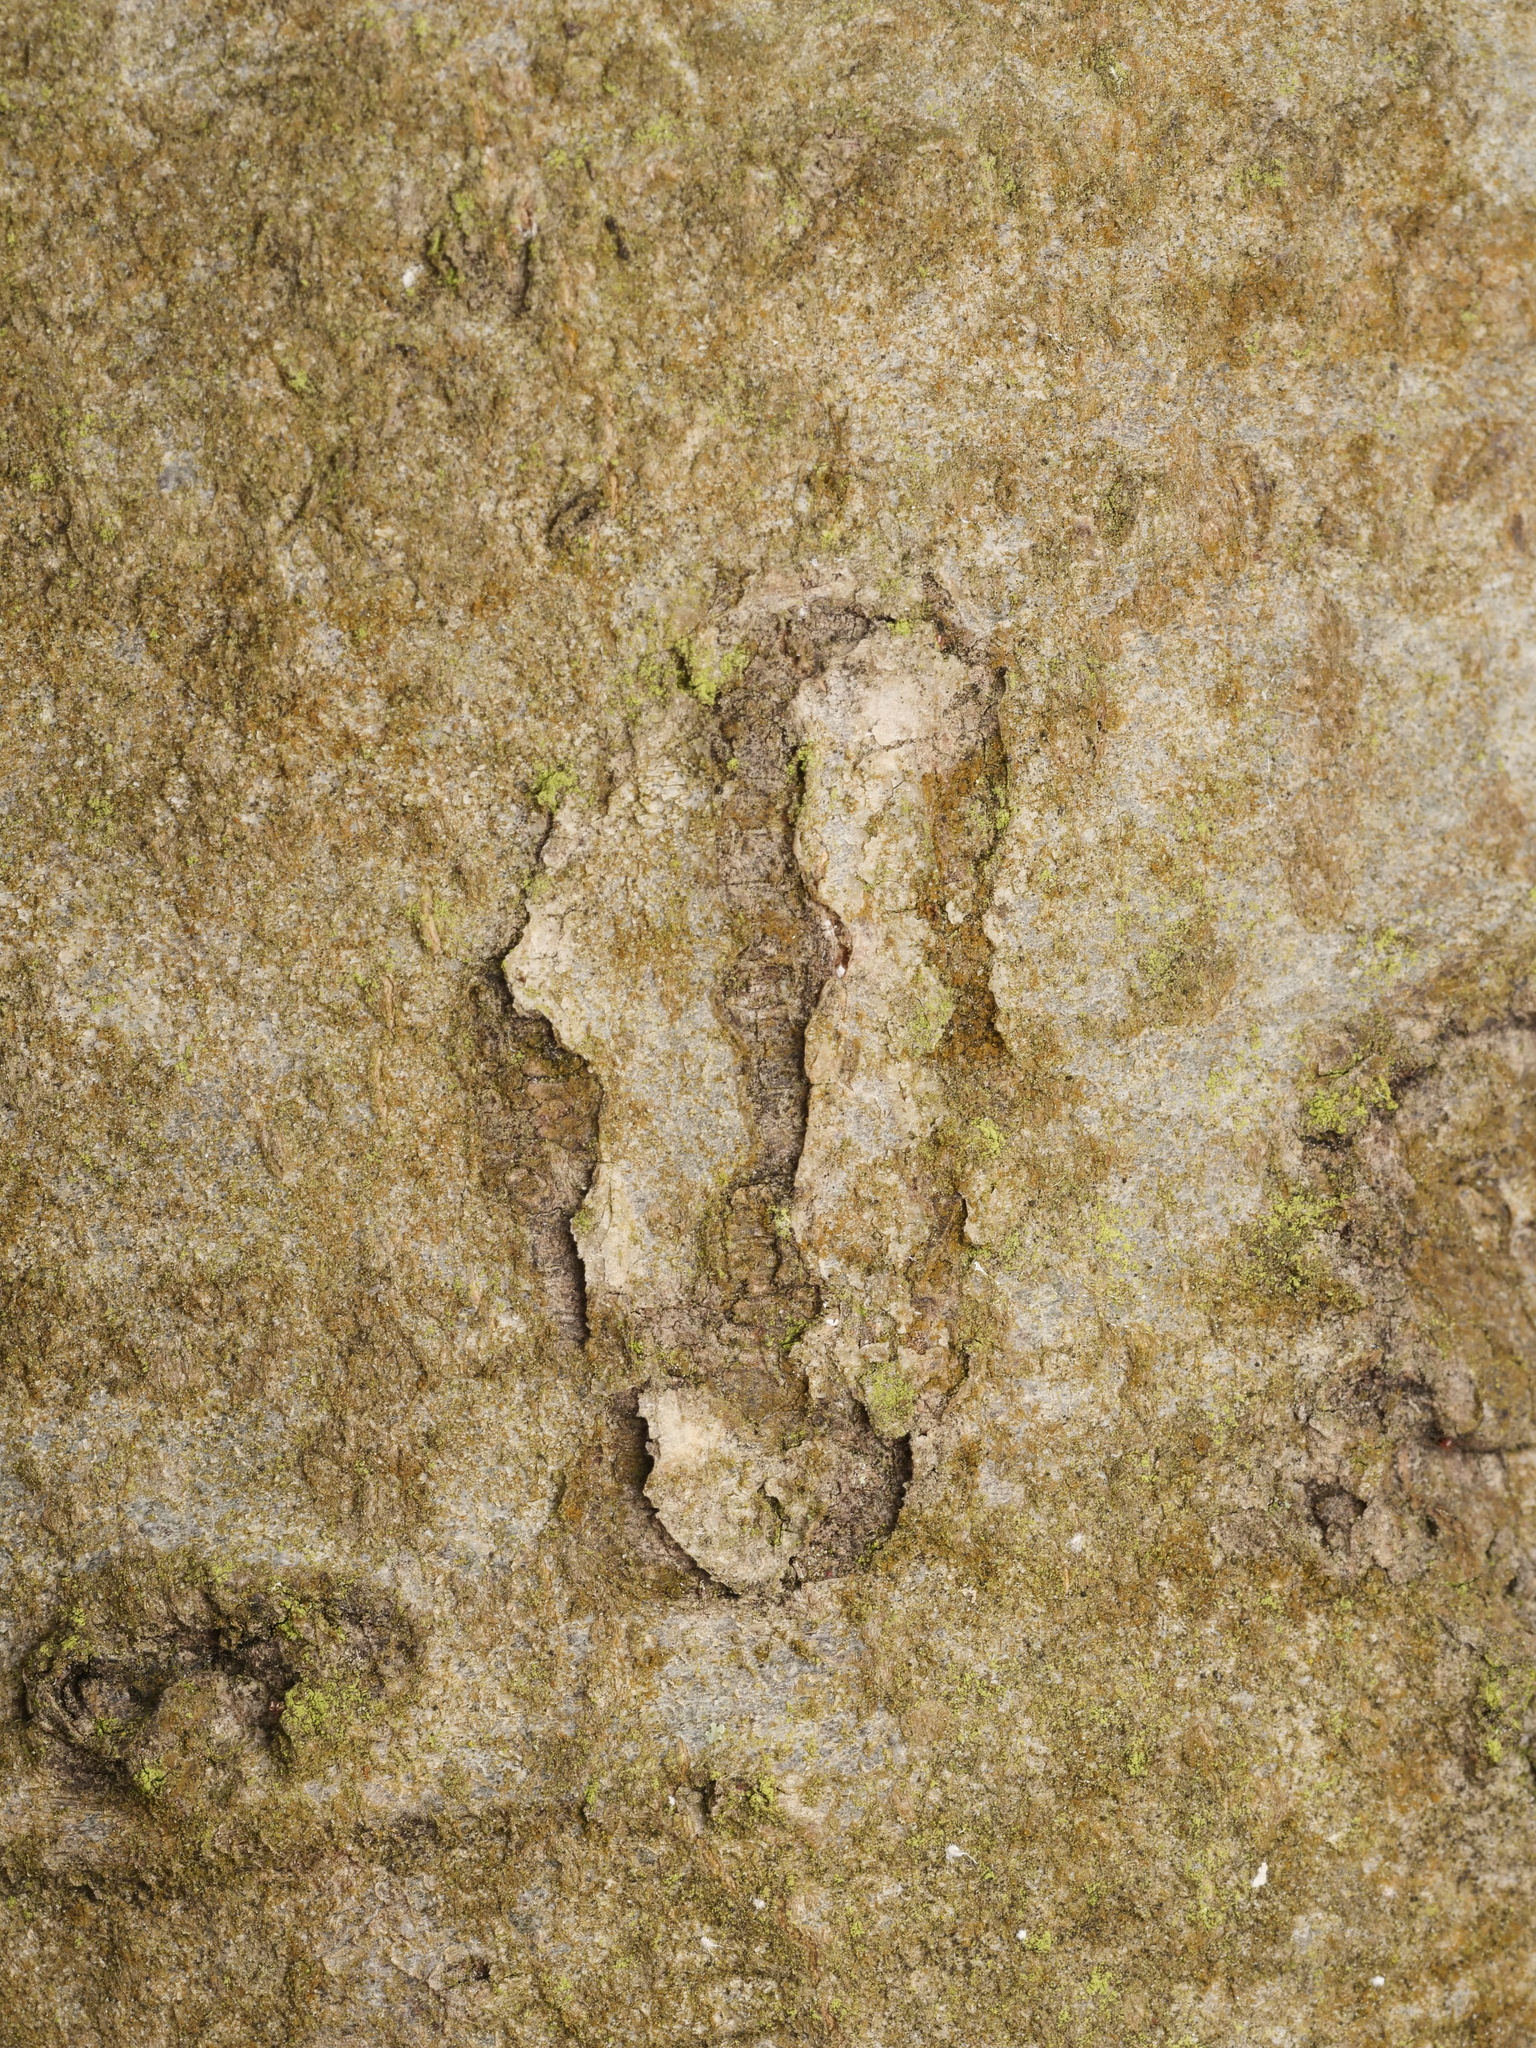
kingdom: Animalia
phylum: Arthropoda
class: Insecta
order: Lepidoptera
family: Nepticulidae
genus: Zimmermannia
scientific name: Zimmermannia liebwerdella
